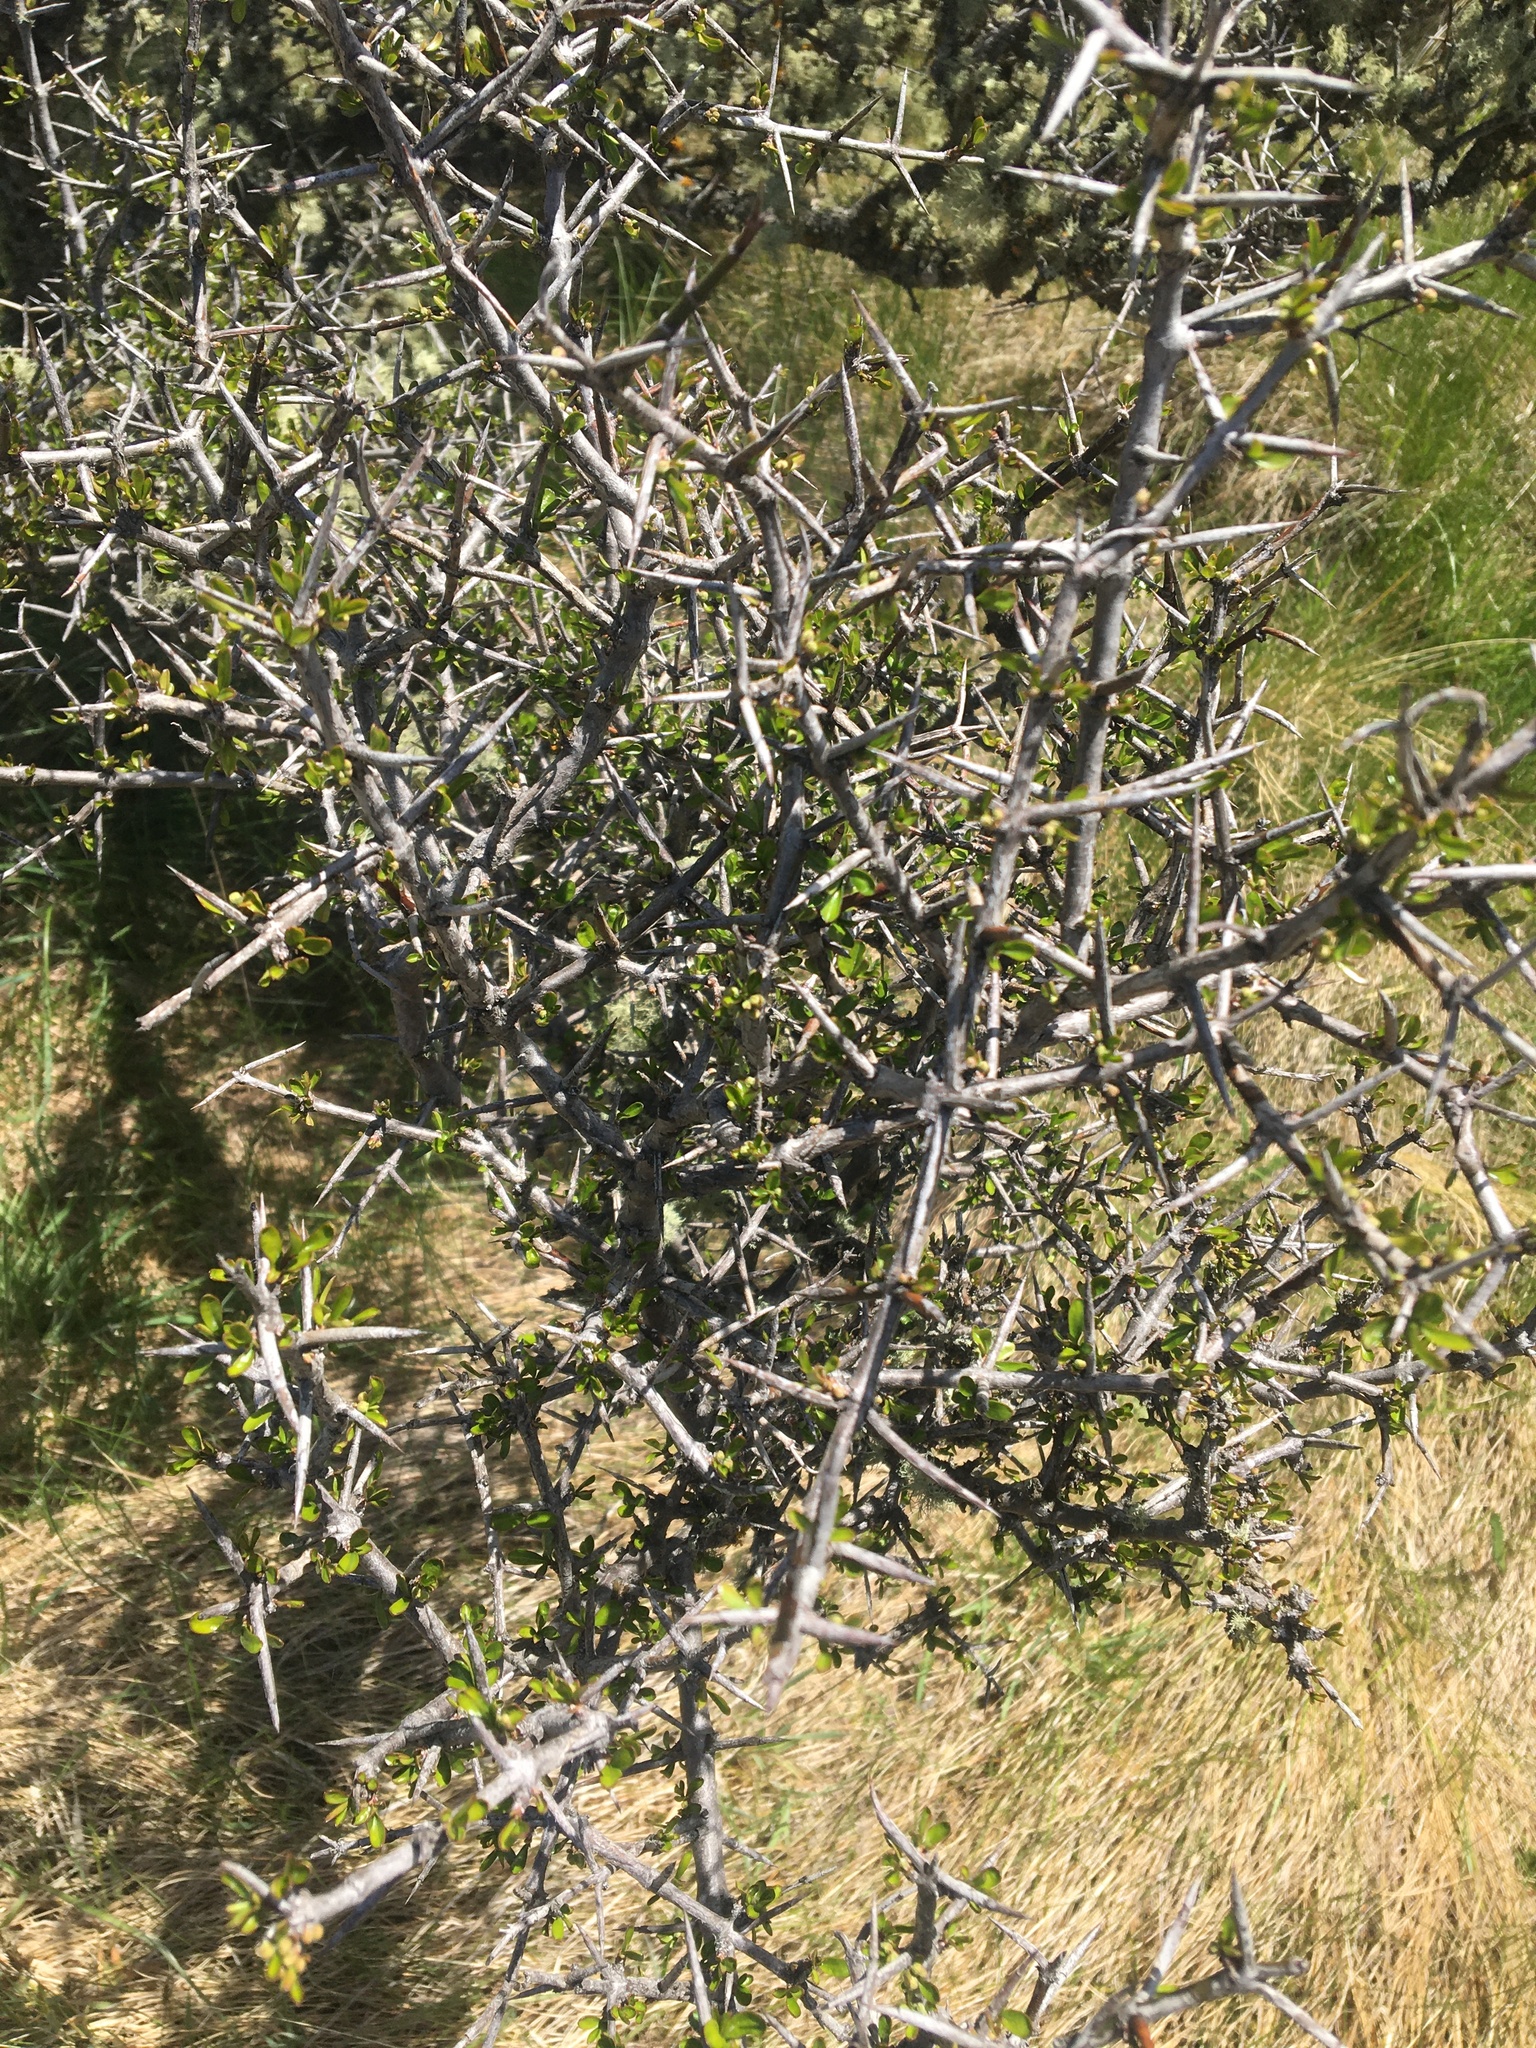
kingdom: Plantae
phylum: Tracheophyta
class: Magnoliopsida
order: Rosales
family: Rhamnaceae
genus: Discaria
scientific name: Discaria toumatou
